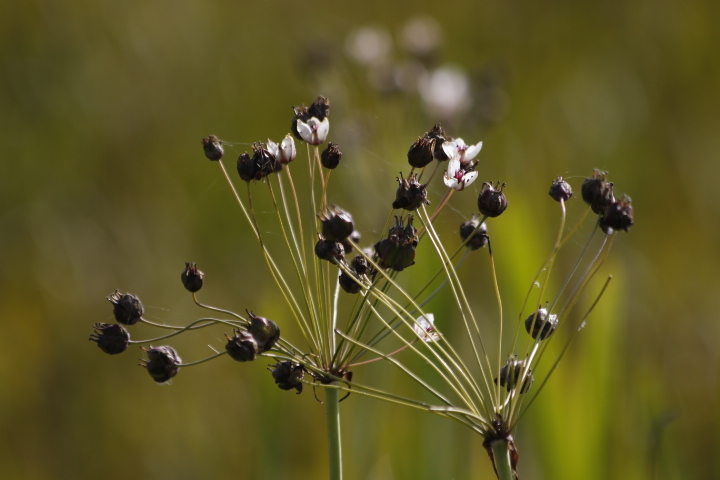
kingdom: Plantae
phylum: Tracheophyta
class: Liliopsida
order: Alismatales
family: Butomaceae
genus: Butomus
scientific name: Butomus umbellatus
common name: Flowering-rush
